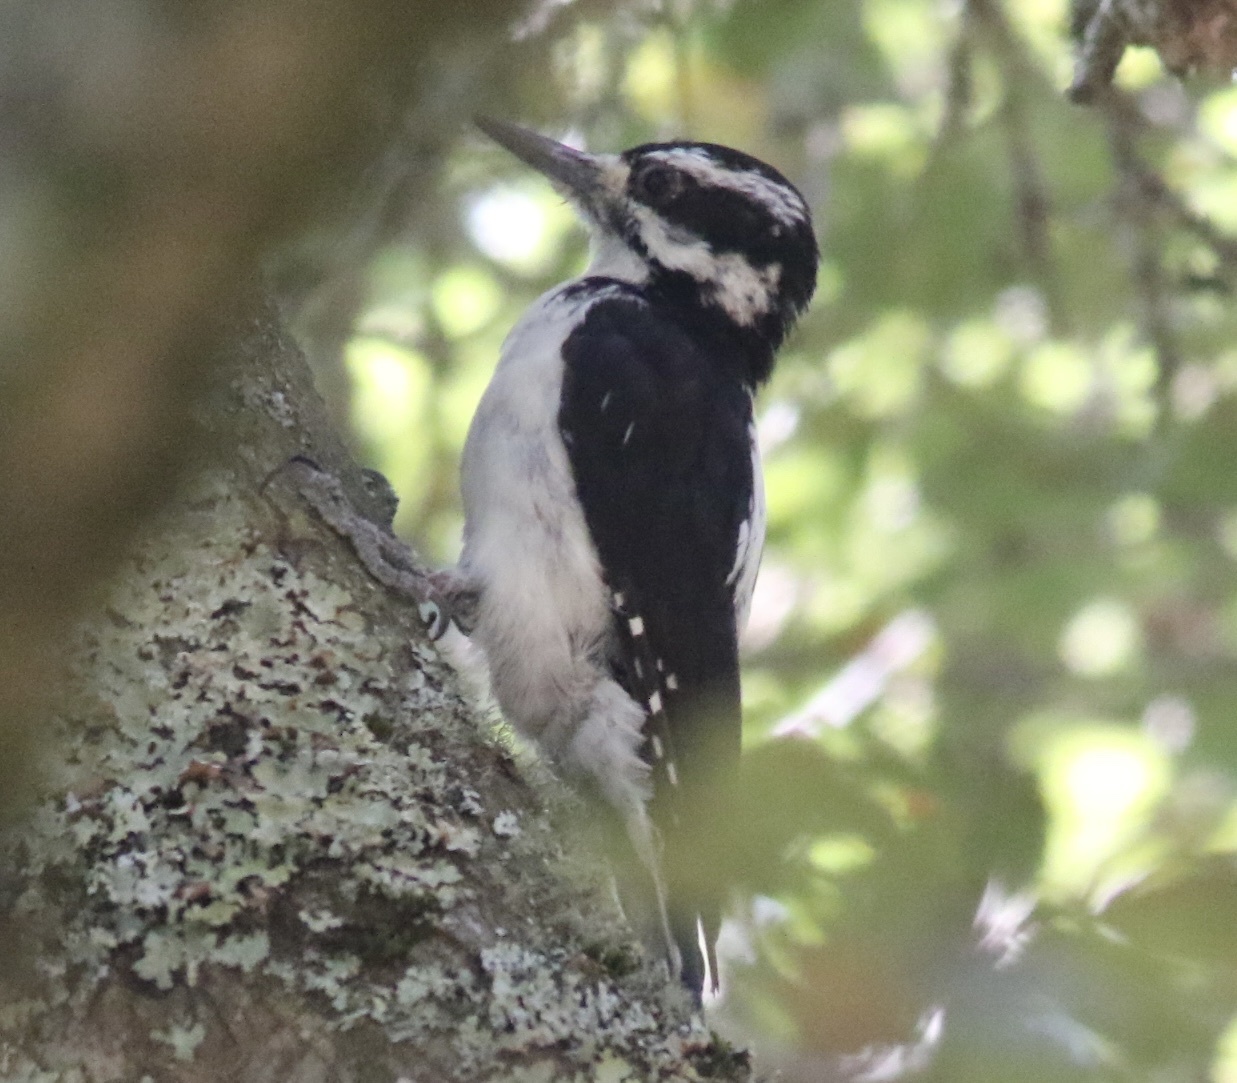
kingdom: Animalia
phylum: Chordata
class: Aves
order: Piciformes
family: Picidae
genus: Leuconotopicus
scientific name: Leuconotopicus villosus
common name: Hairy woodpecker
